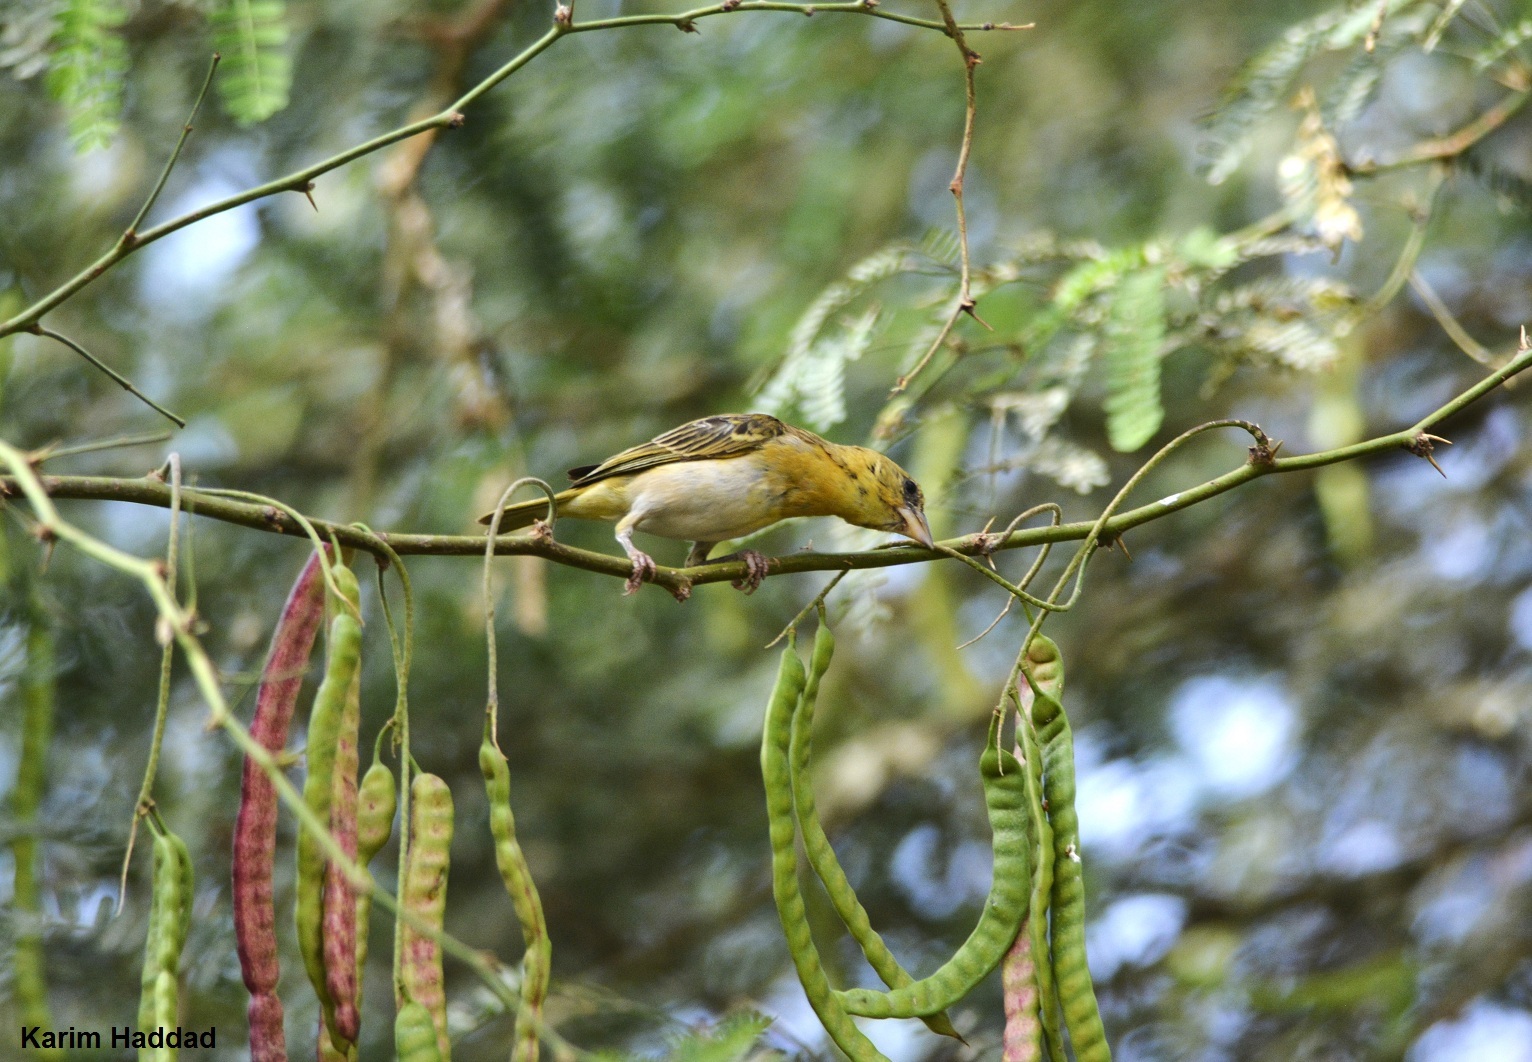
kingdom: Animalia
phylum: Chordata
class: Aves
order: Passeriformes
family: Ploceidae
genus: Ploceus
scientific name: Ploceus vitellinus
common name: Vitelline masked weaver
